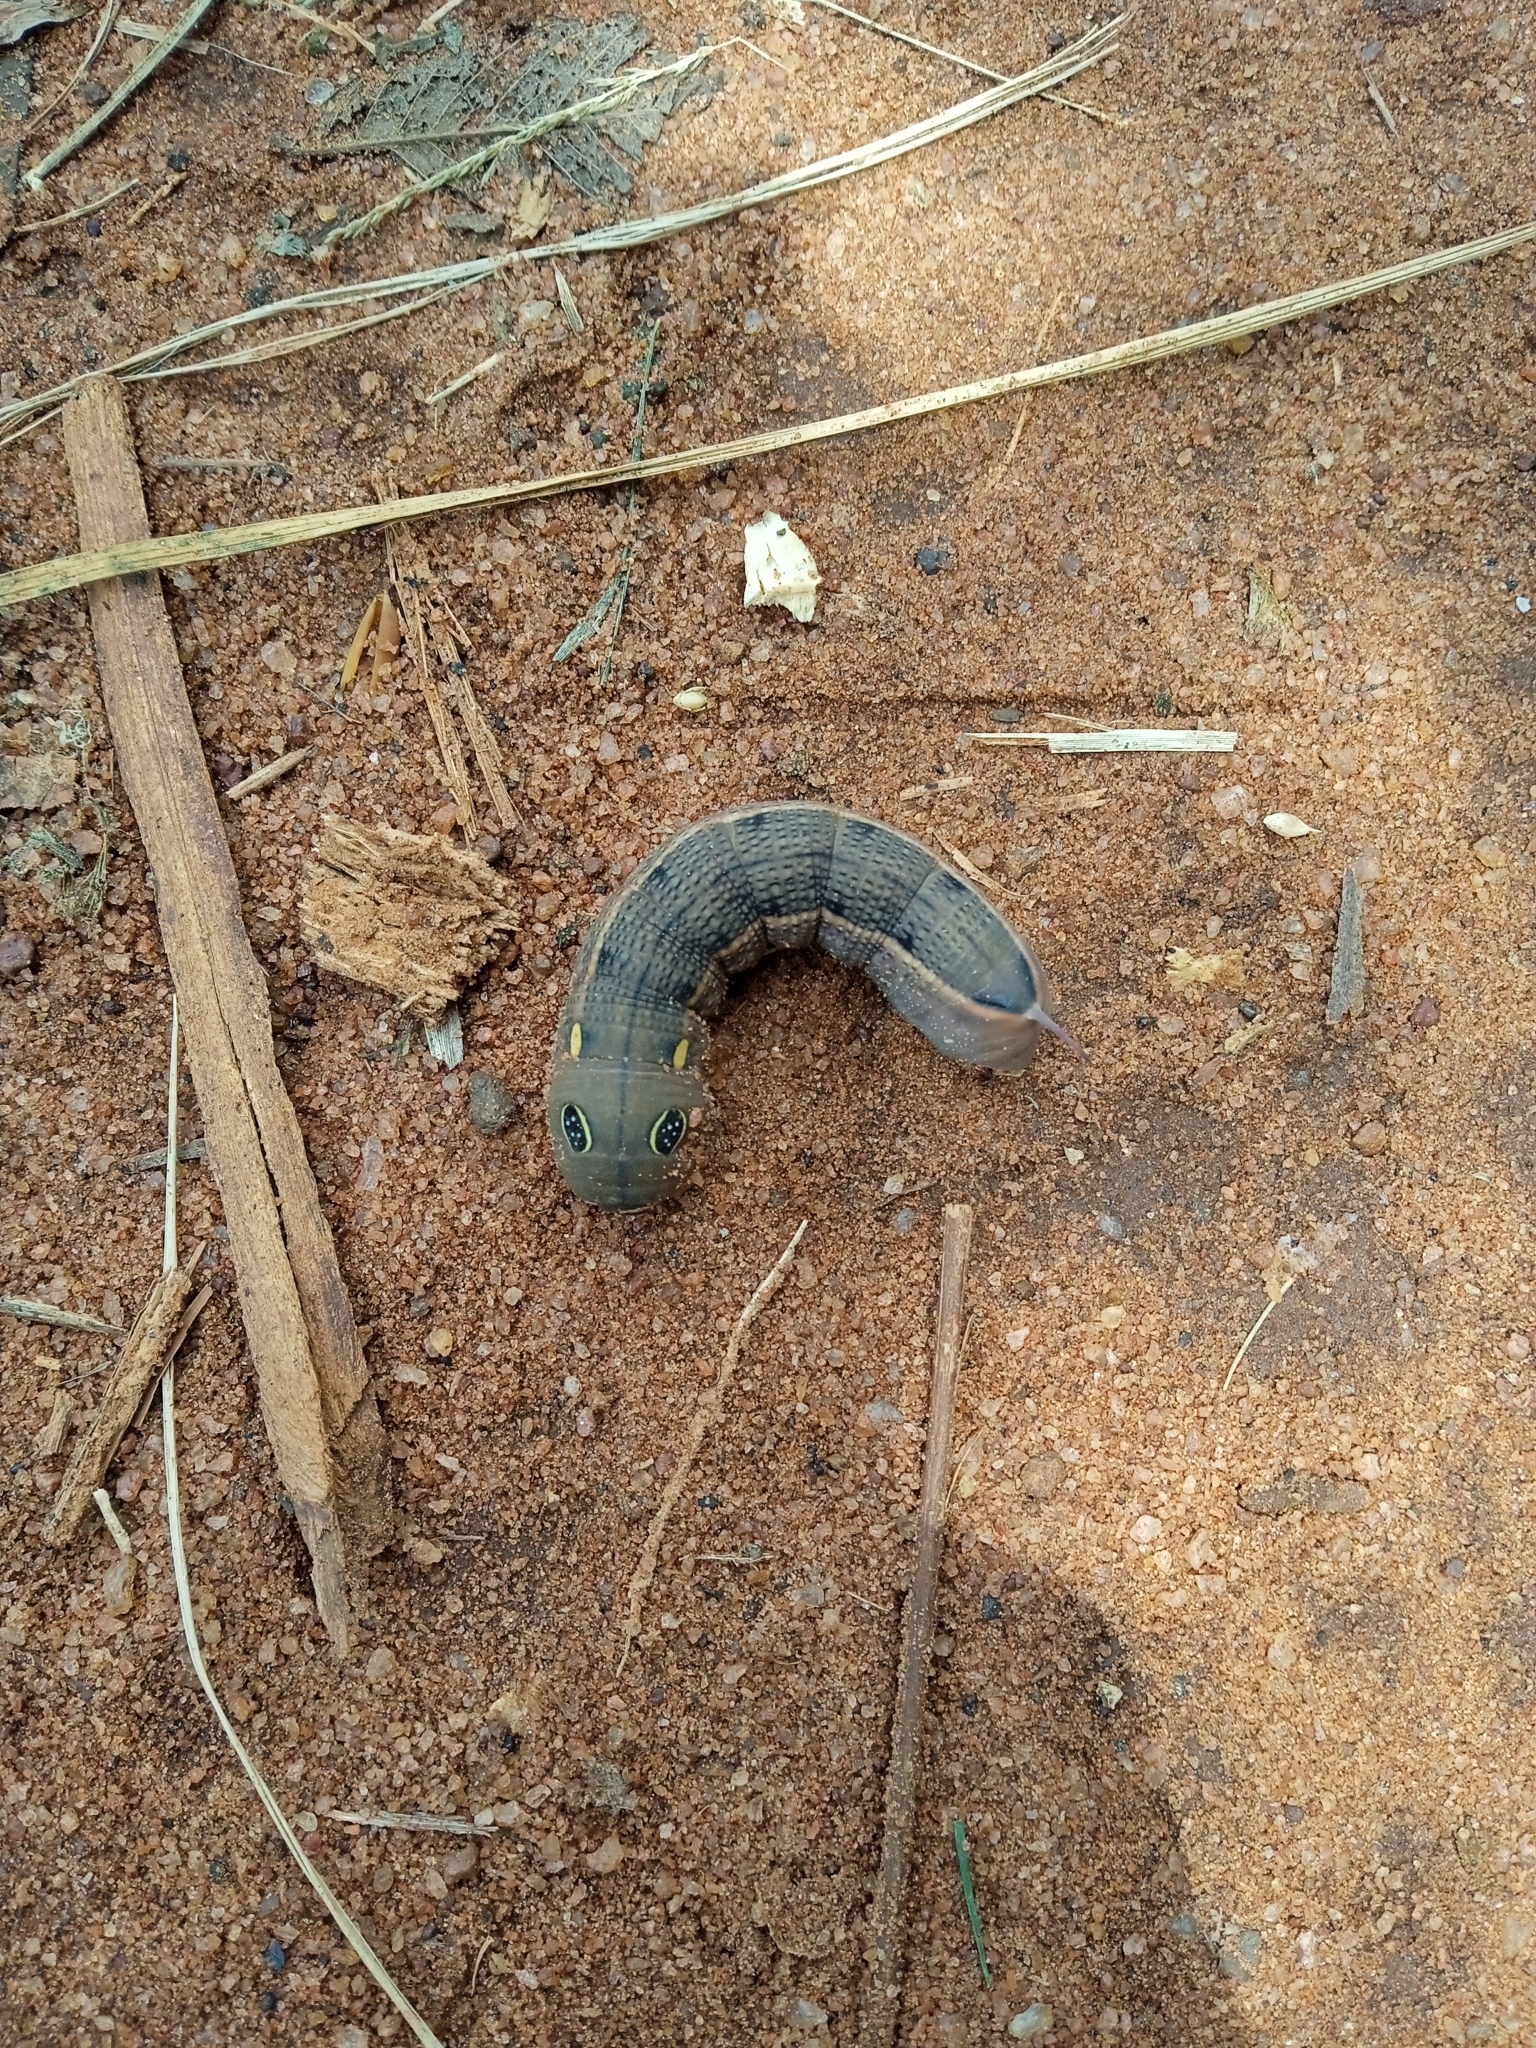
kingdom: Animalia
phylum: Arthropoda
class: Insecta
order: Lepidoptera
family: Sphingidae
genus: Hippotion
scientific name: Hippotion celerio
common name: Silver-striped hawk-moth
